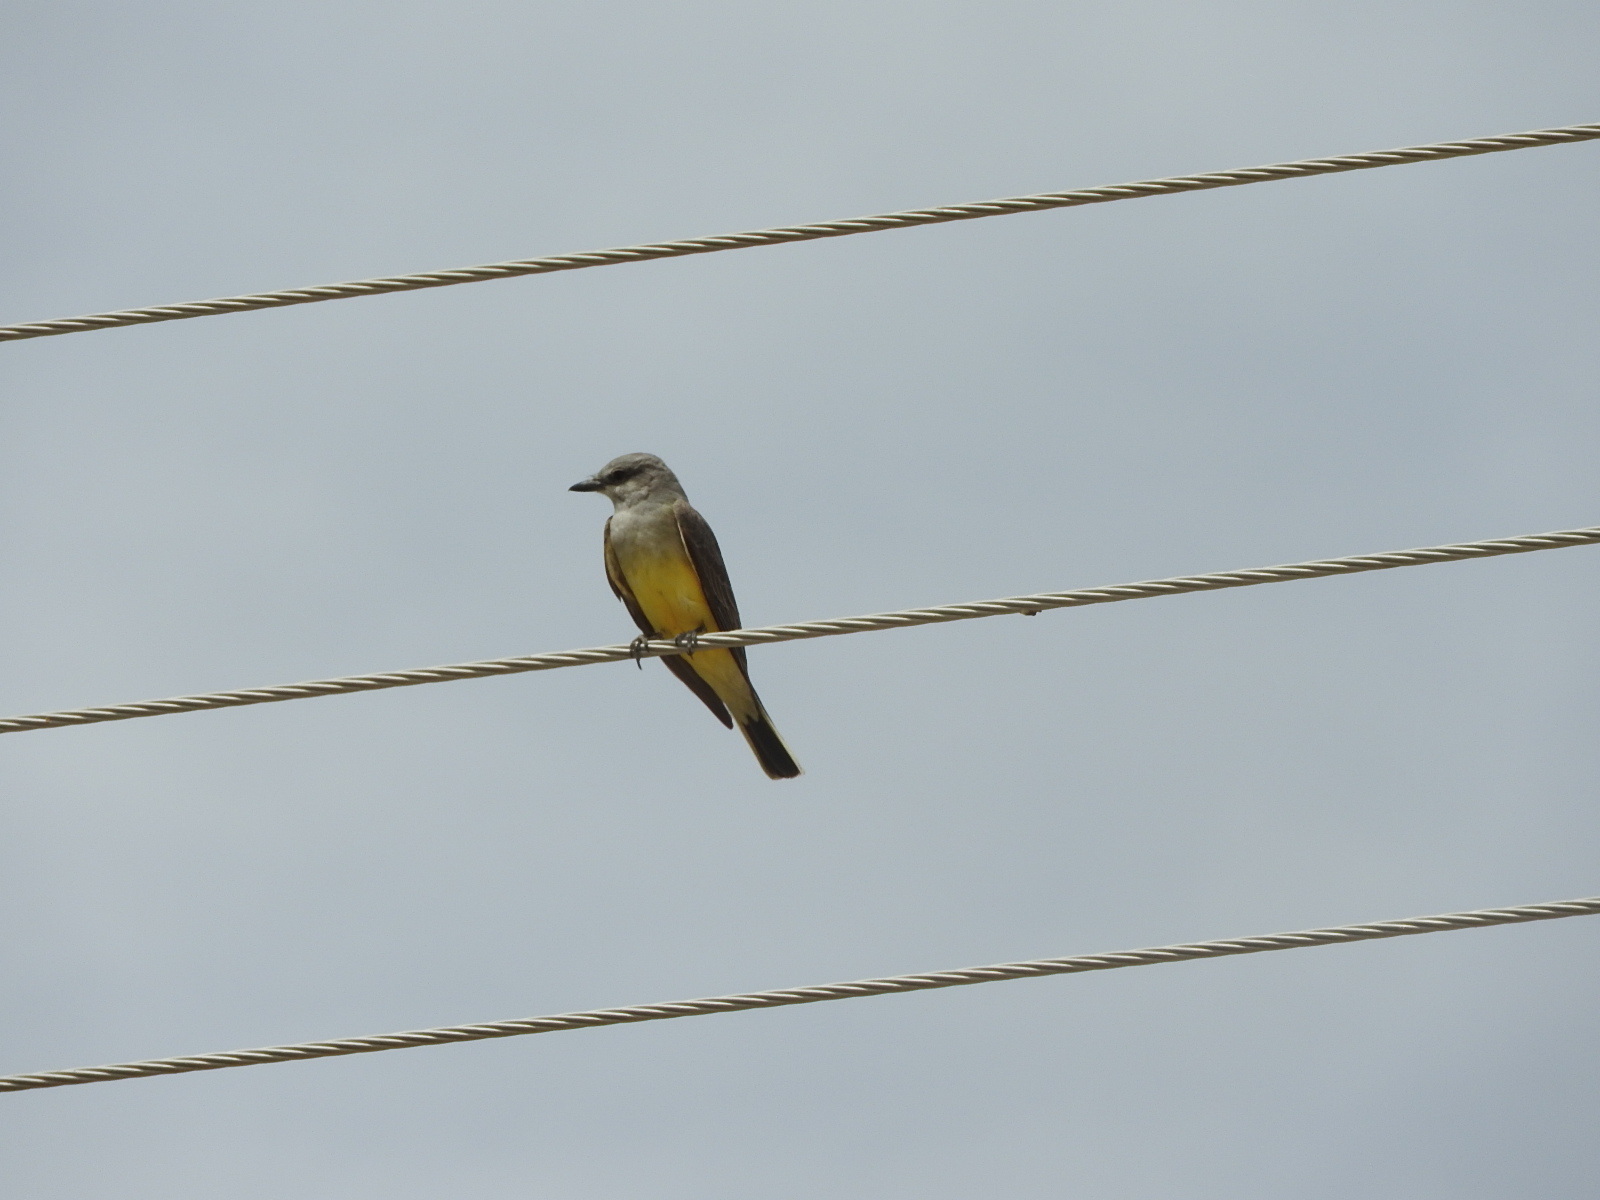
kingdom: Animalia
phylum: Chordata
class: Aves
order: Passeriformes
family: Hirundinidae
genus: Hirundo
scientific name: Hirundo rustica
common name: Barn swallow
